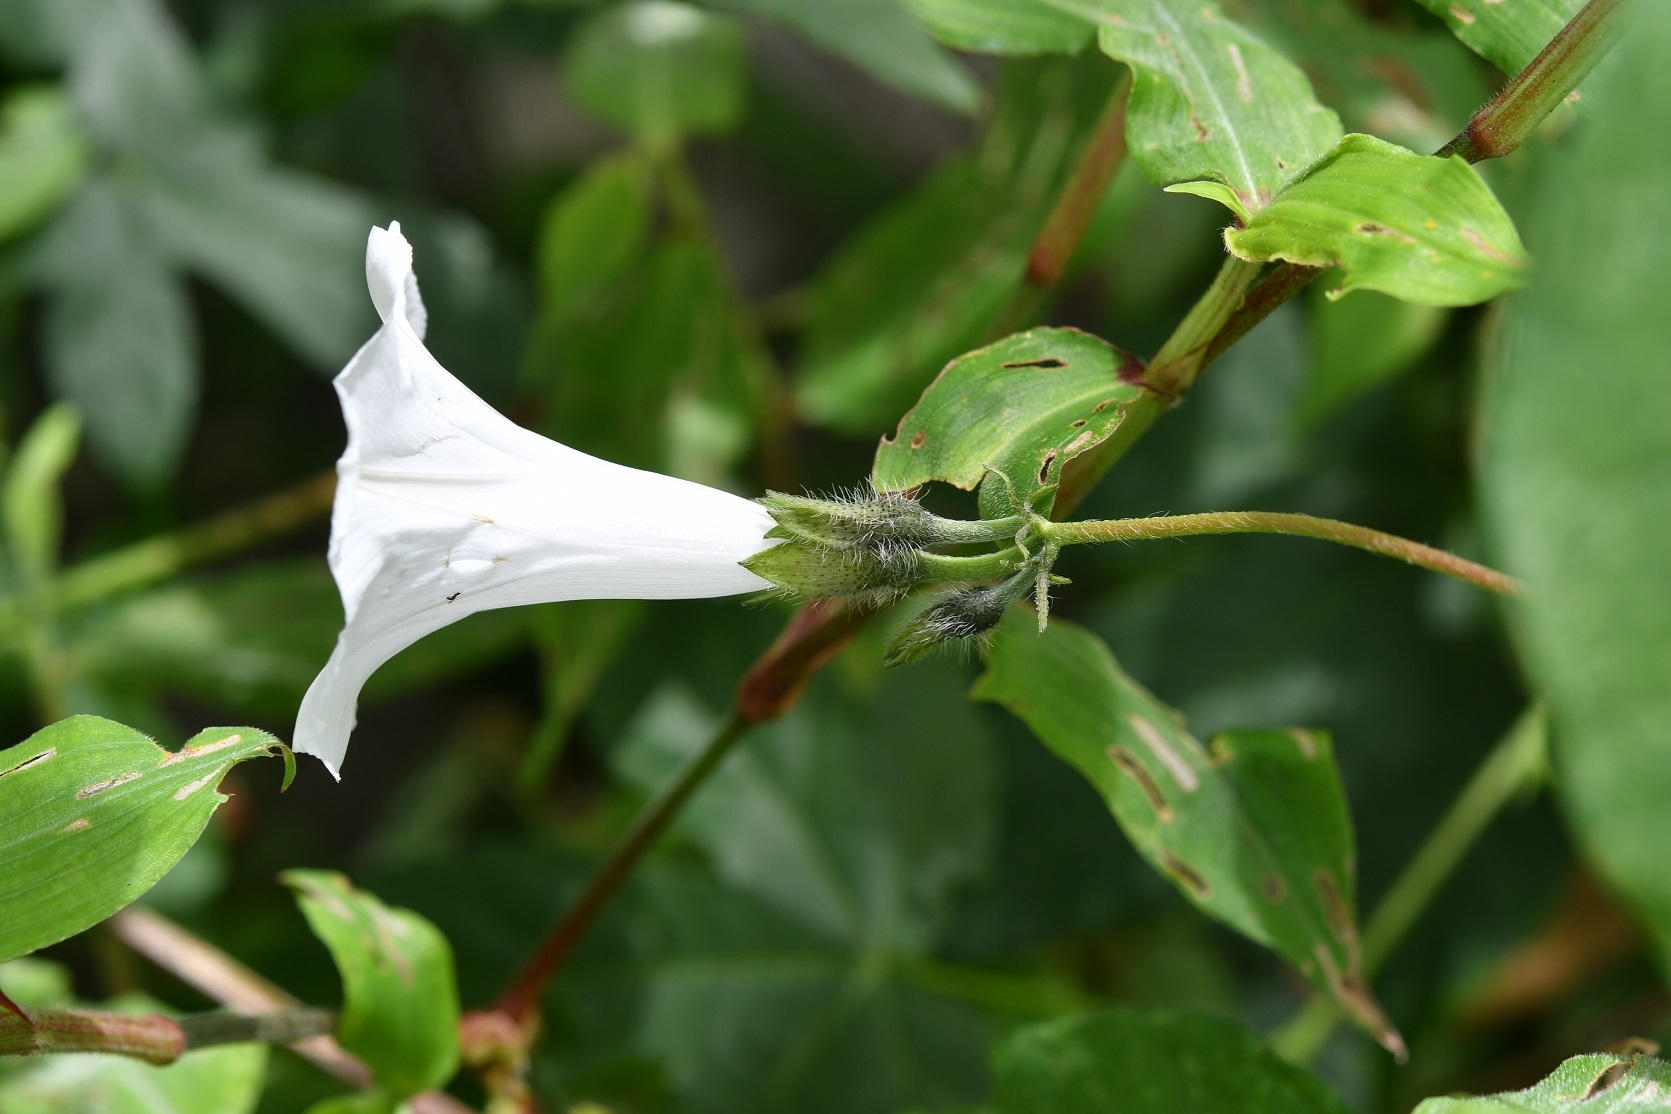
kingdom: Plantae
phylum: Tracheophyta
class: Magnoliopsida
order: Solanales
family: Convolvulaceae
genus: Ipomoea
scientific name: Ipomoea purpurea
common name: Common morning-glory
